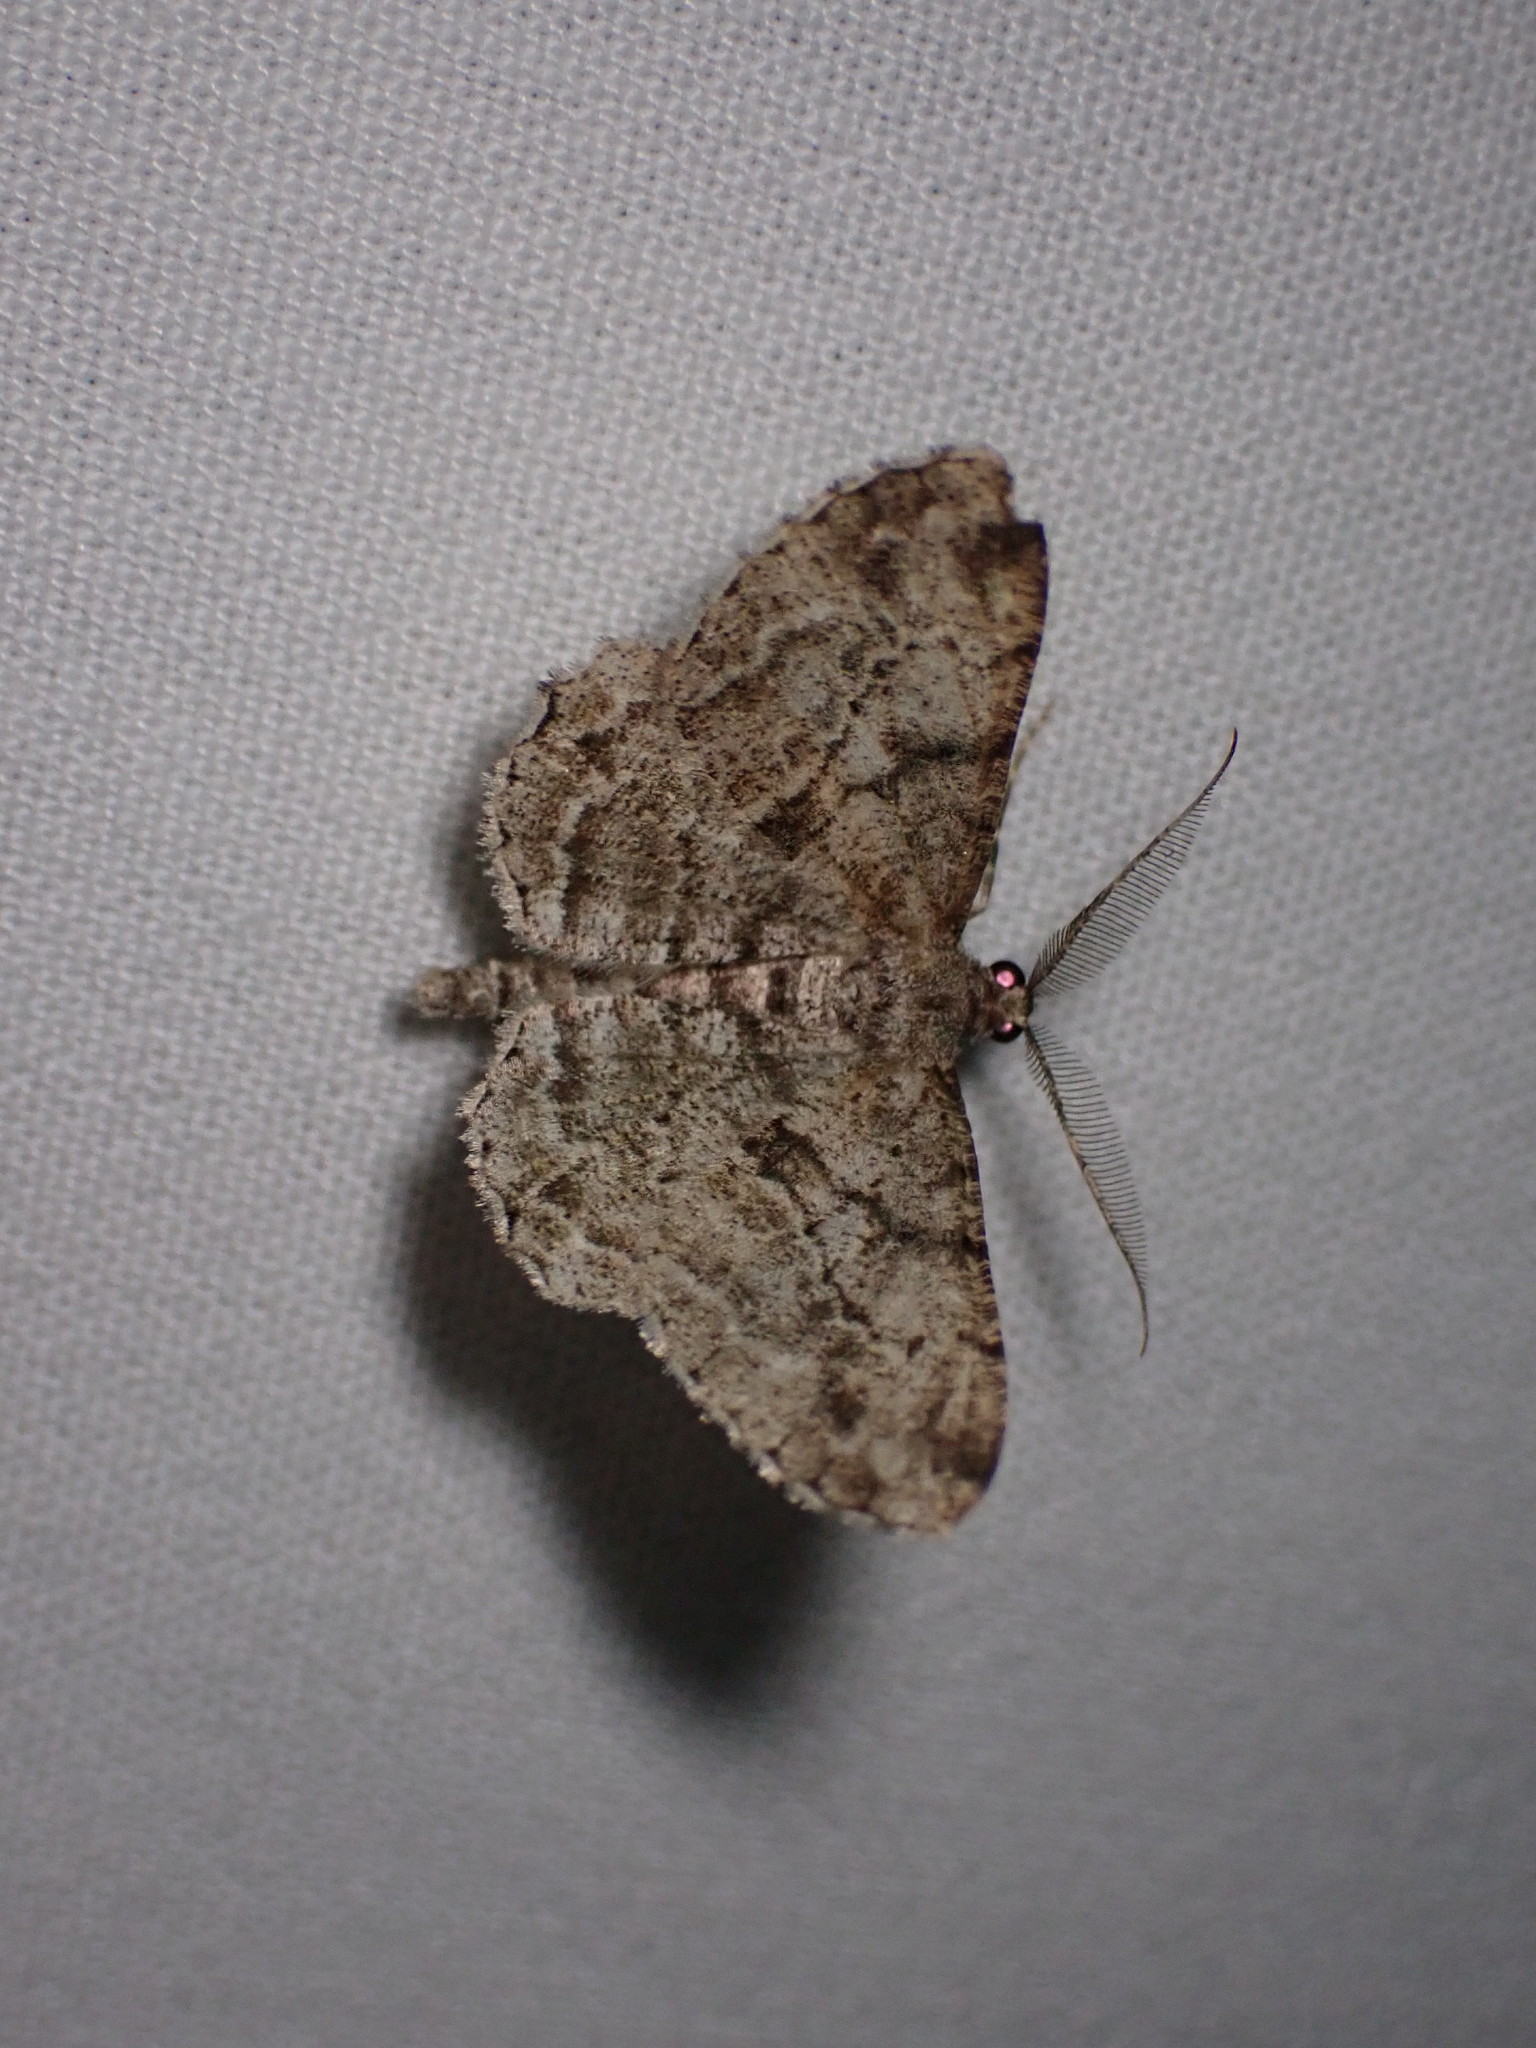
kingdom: Animalia
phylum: Arthropoda
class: Insecta
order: Lepidoptera
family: Geometridae
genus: Peribatodes
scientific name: Peribatodes rhomboidaria
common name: Willow beauty
